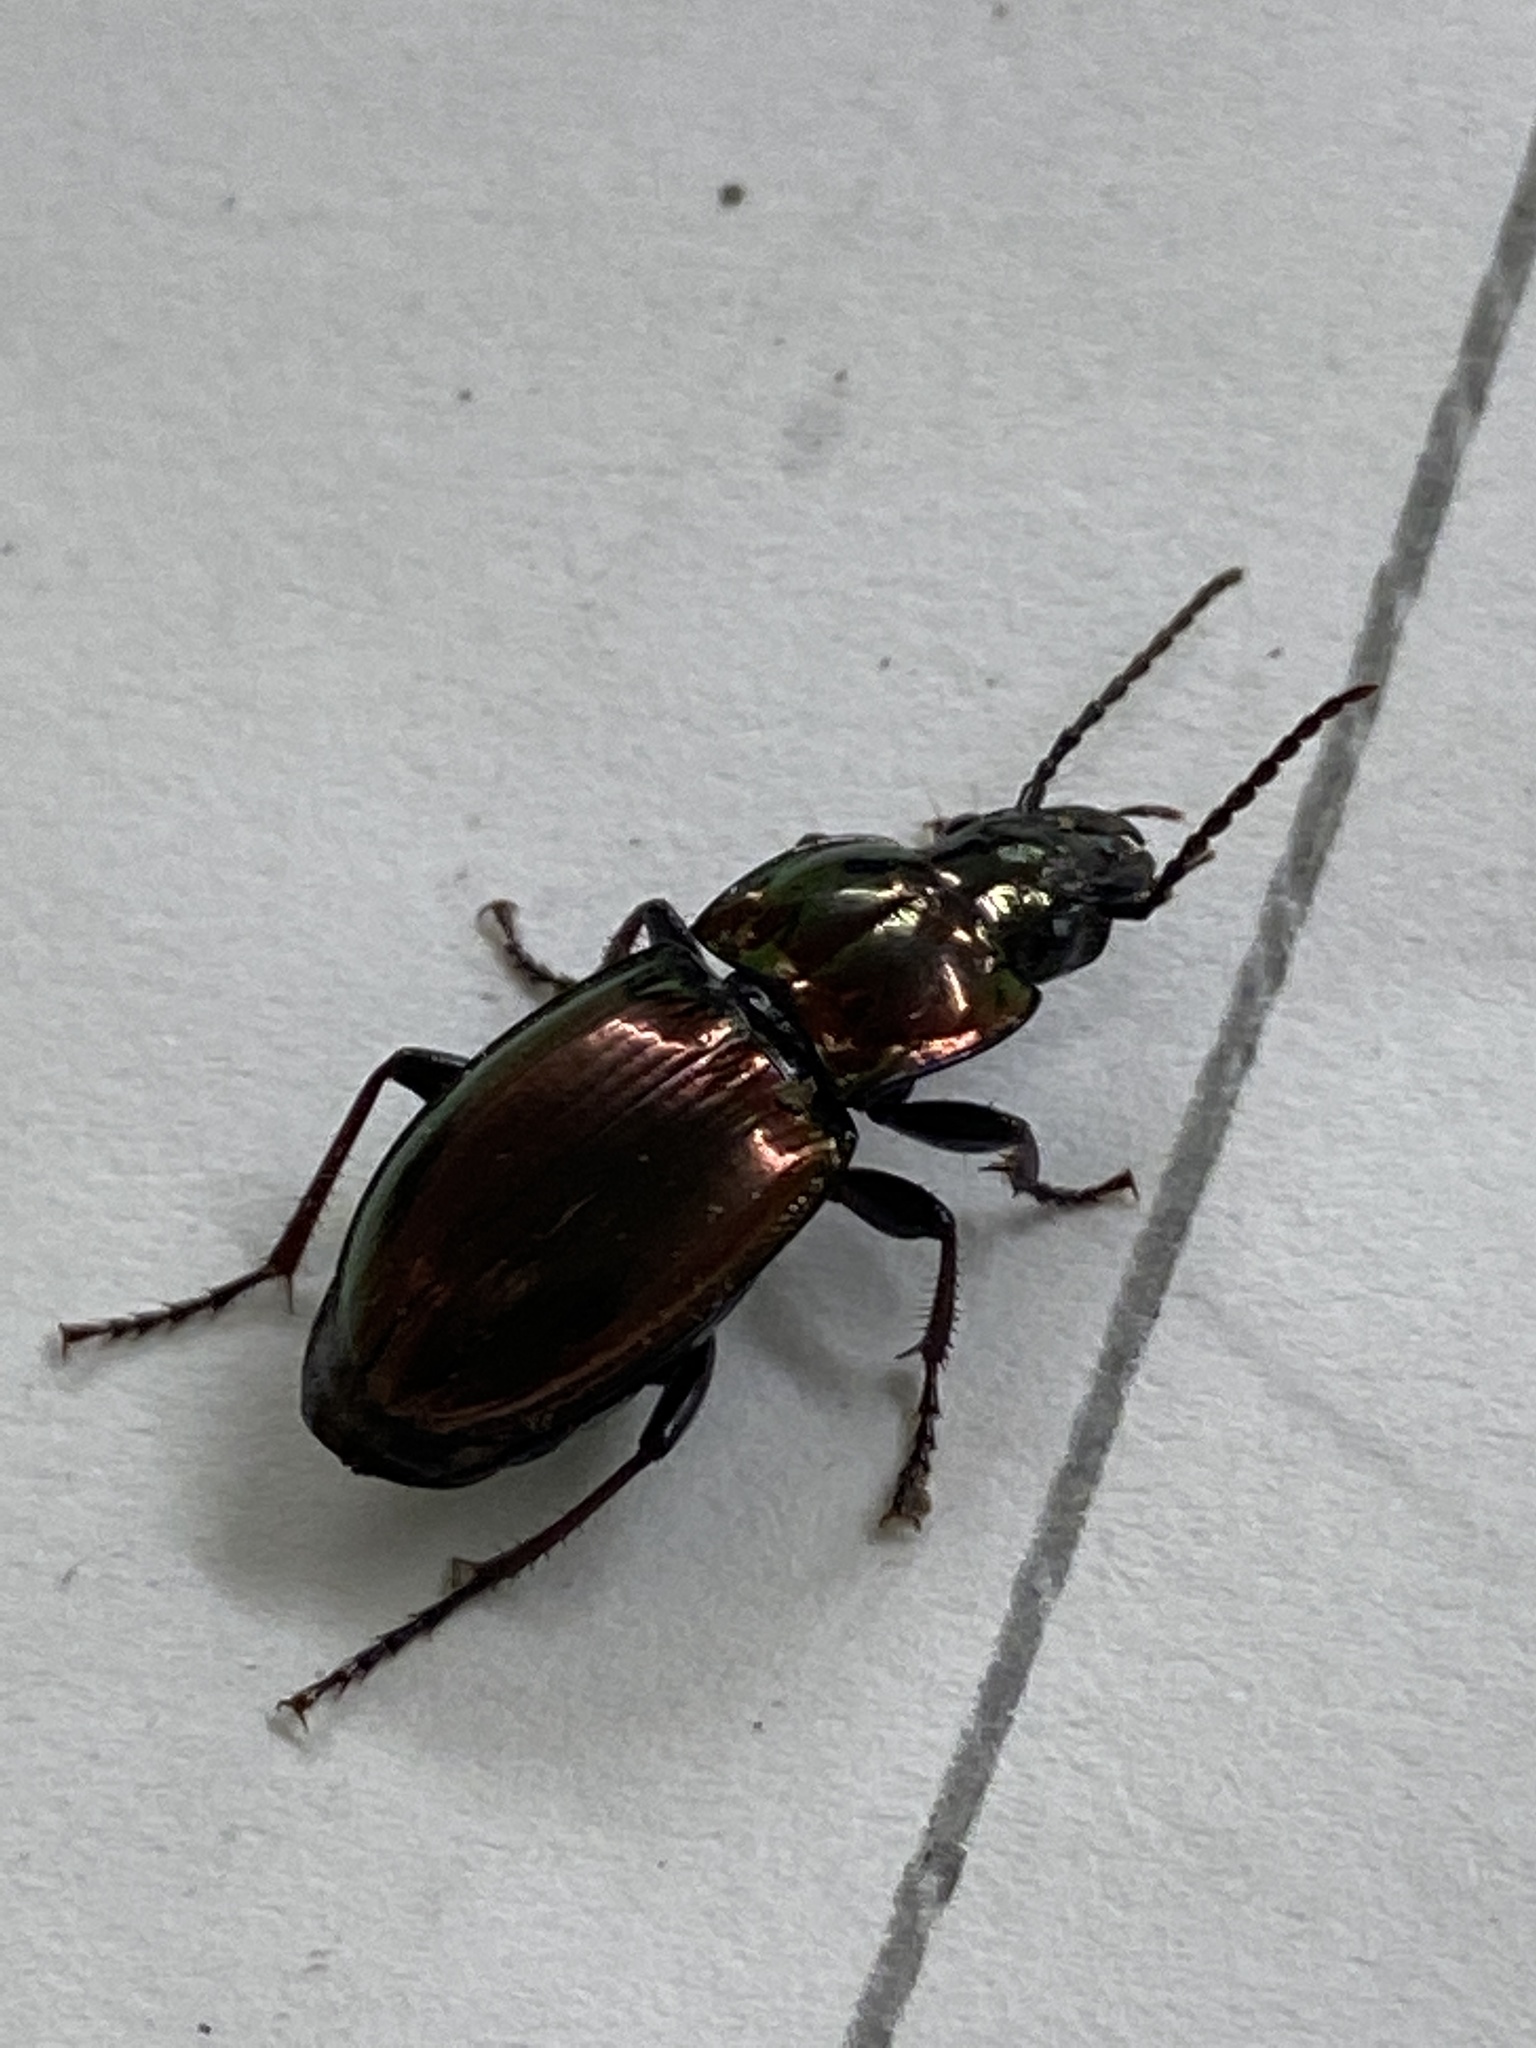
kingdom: Animalia
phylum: Arthropoda
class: Insecta
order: Coleoptera
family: Carabidae
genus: Pterostichus
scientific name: Pterostichus burmeisteri
